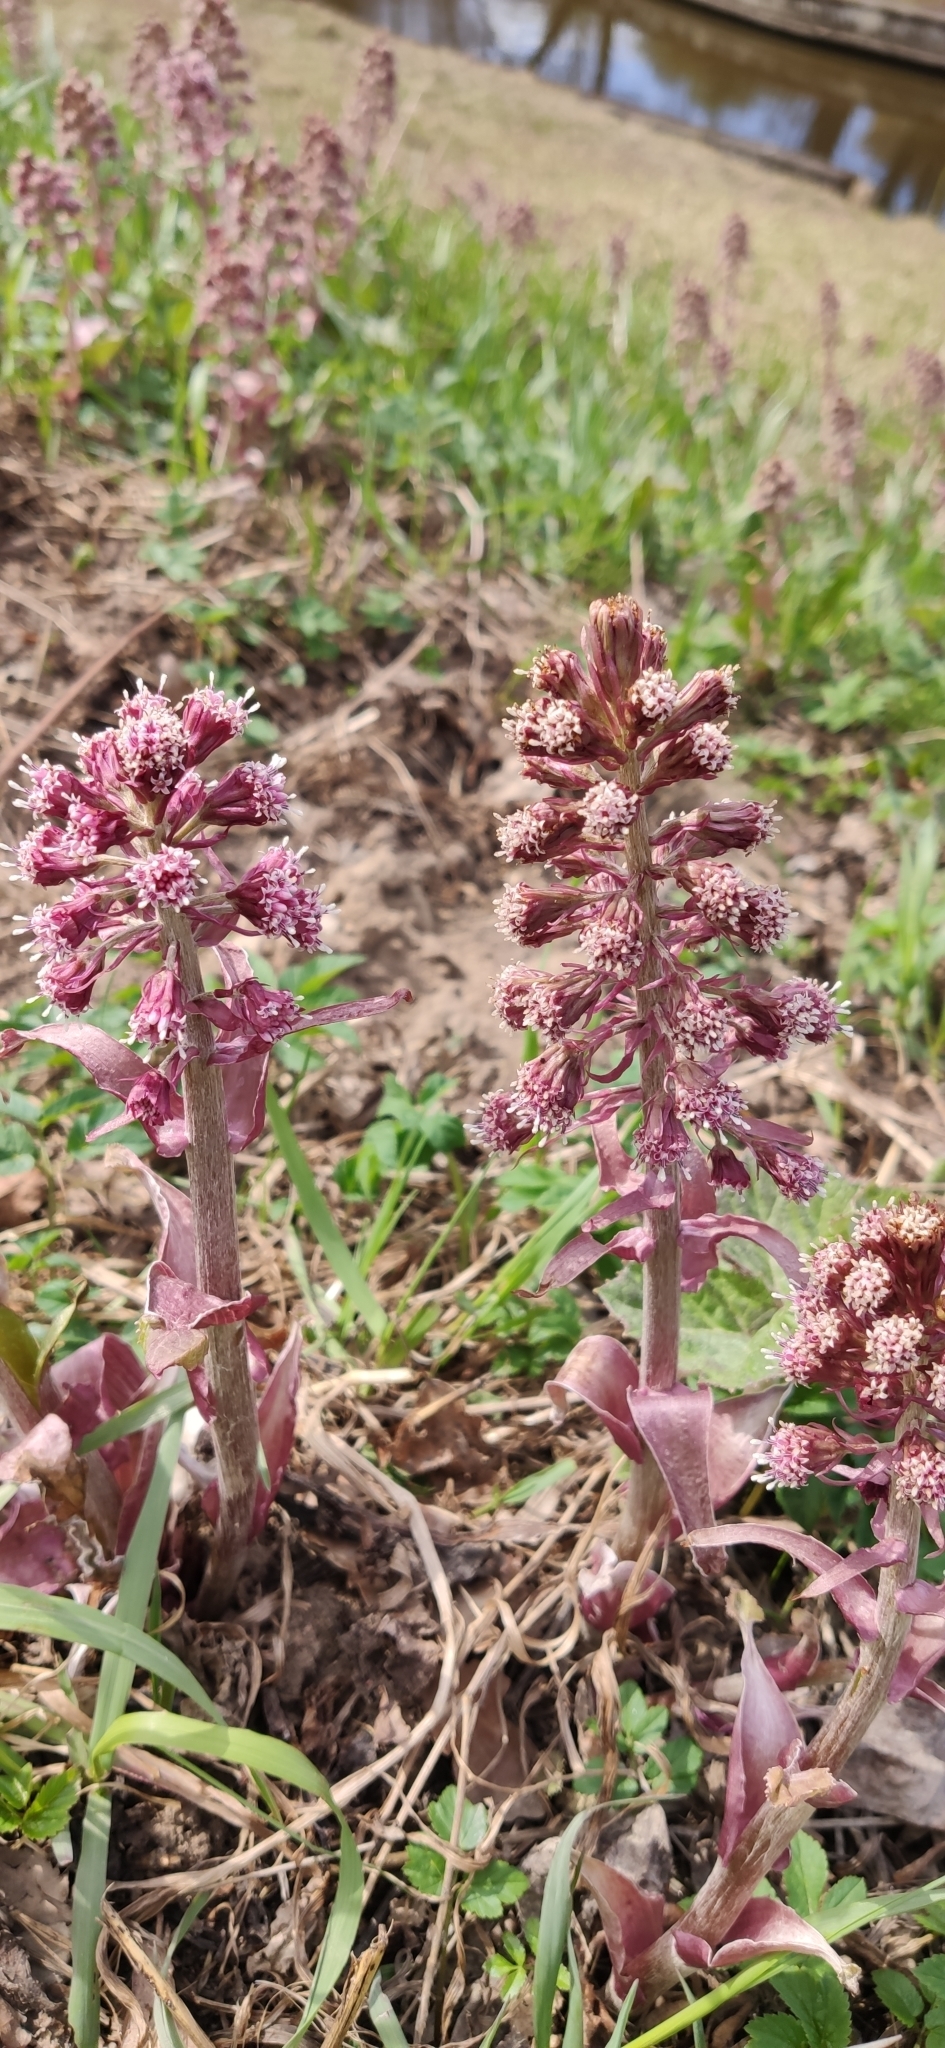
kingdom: Plantae
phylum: Tracheophyta
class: Magnoliopsida
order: Asterales
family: Asteraceae
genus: Petasites
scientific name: Petasites hybridus
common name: Butterbur
